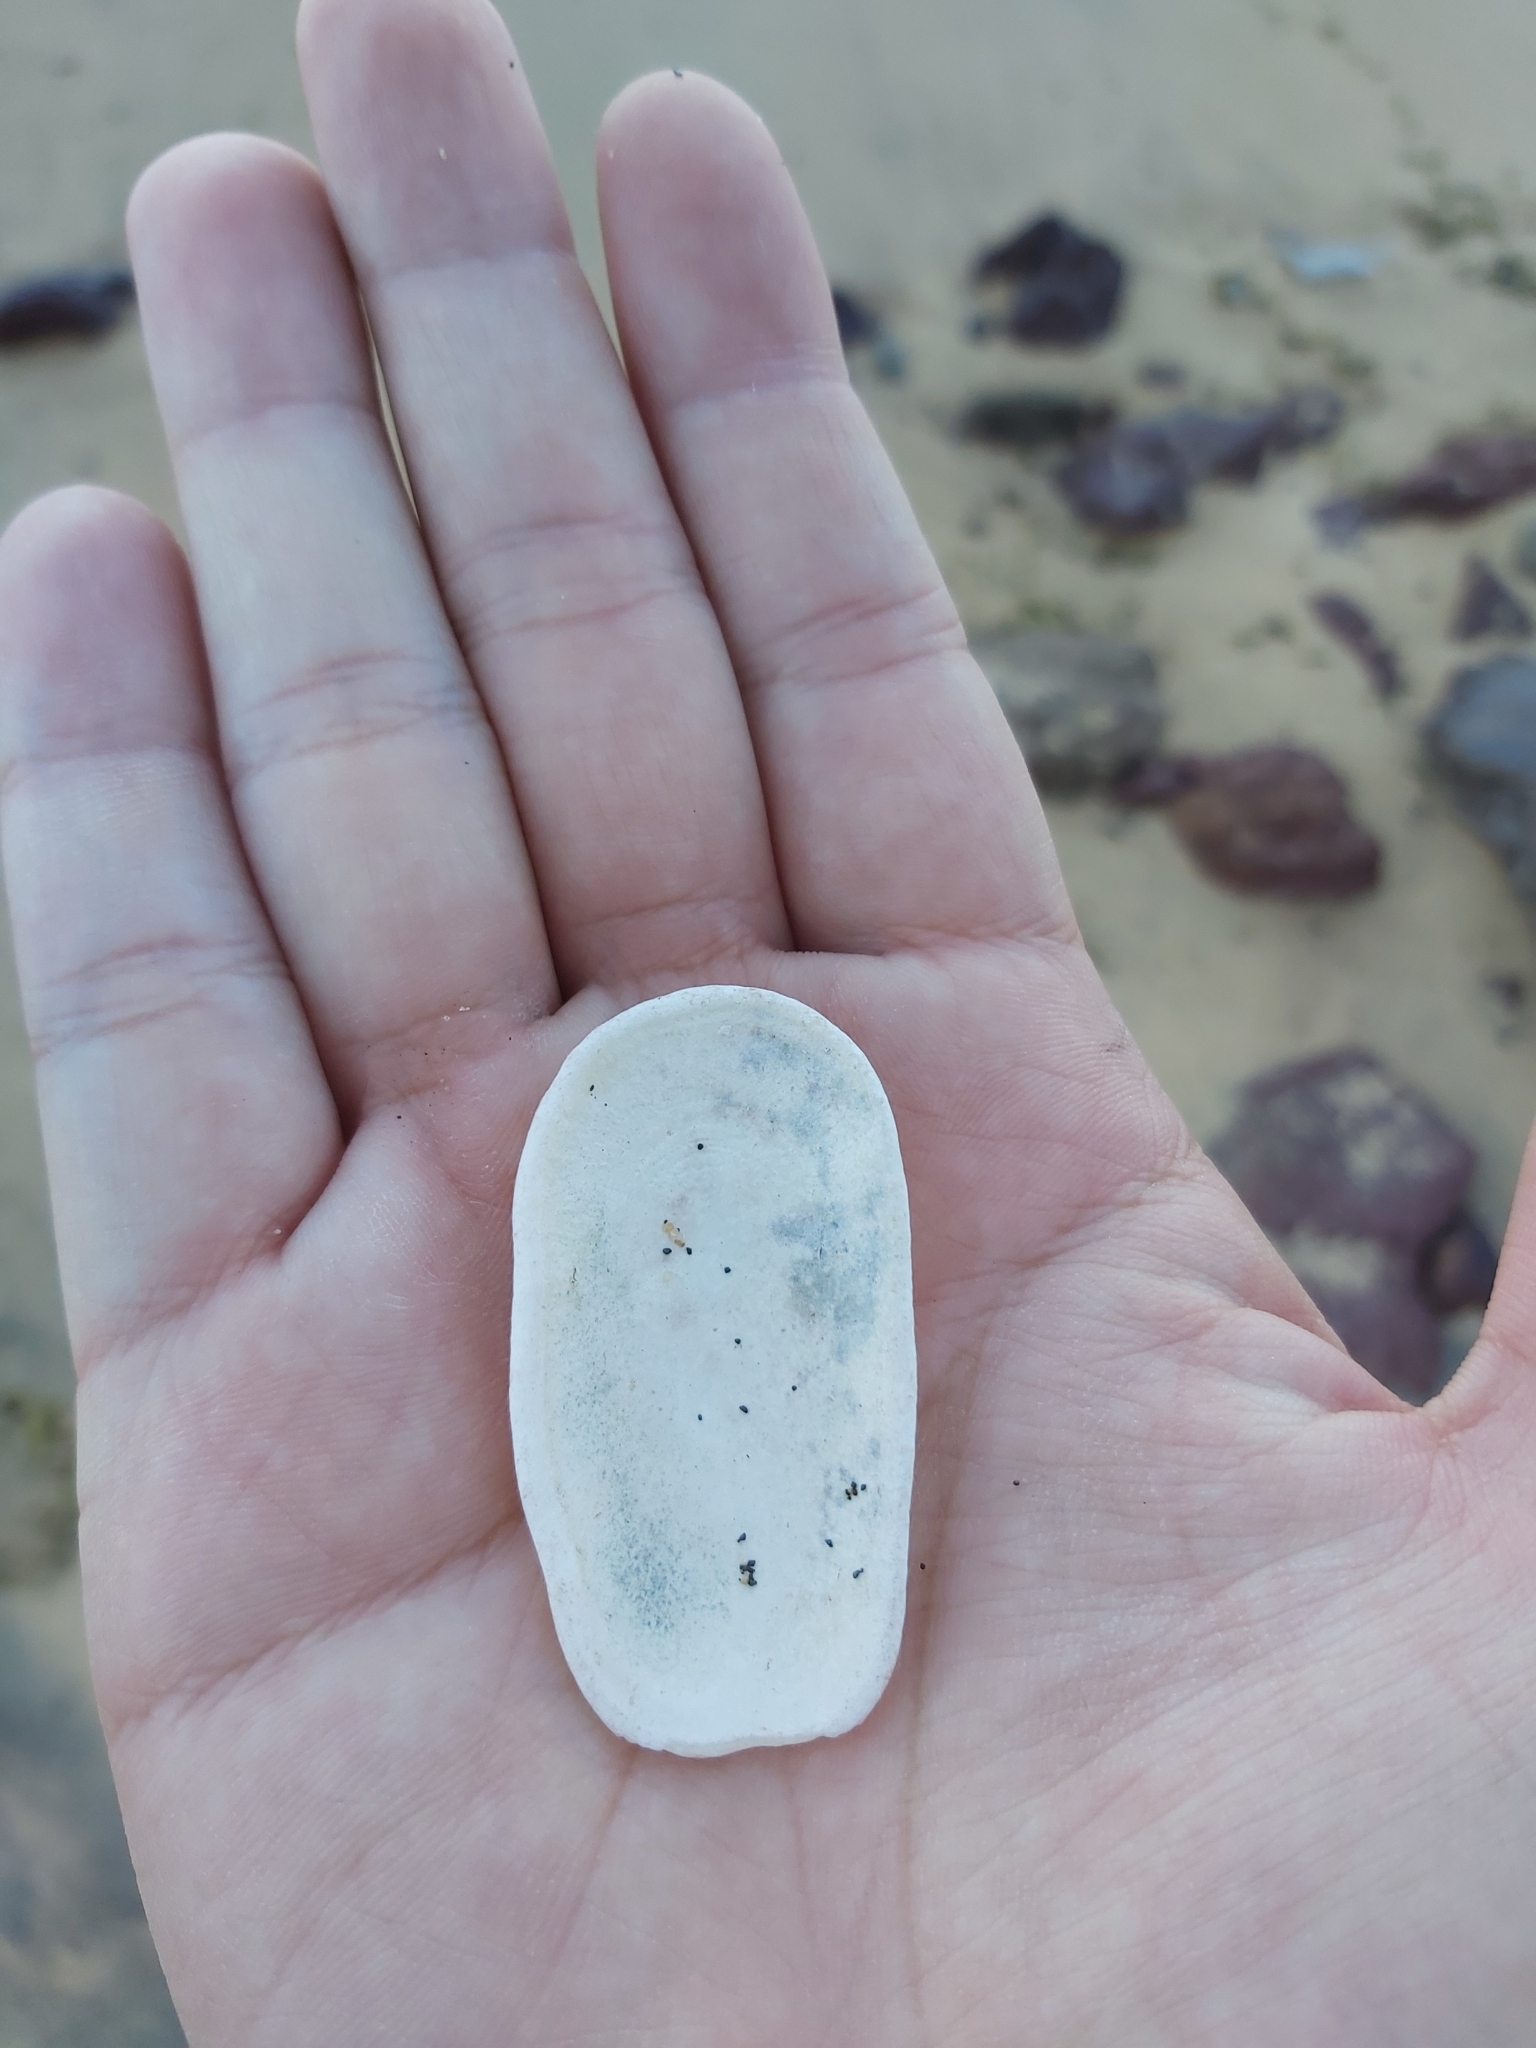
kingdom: Animalia
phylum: Mollusca
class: Gastropoda
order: Lepetellida
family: Fissurellidae
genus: Scutus
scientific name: Scutus antipodes
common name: Duckbill shell
